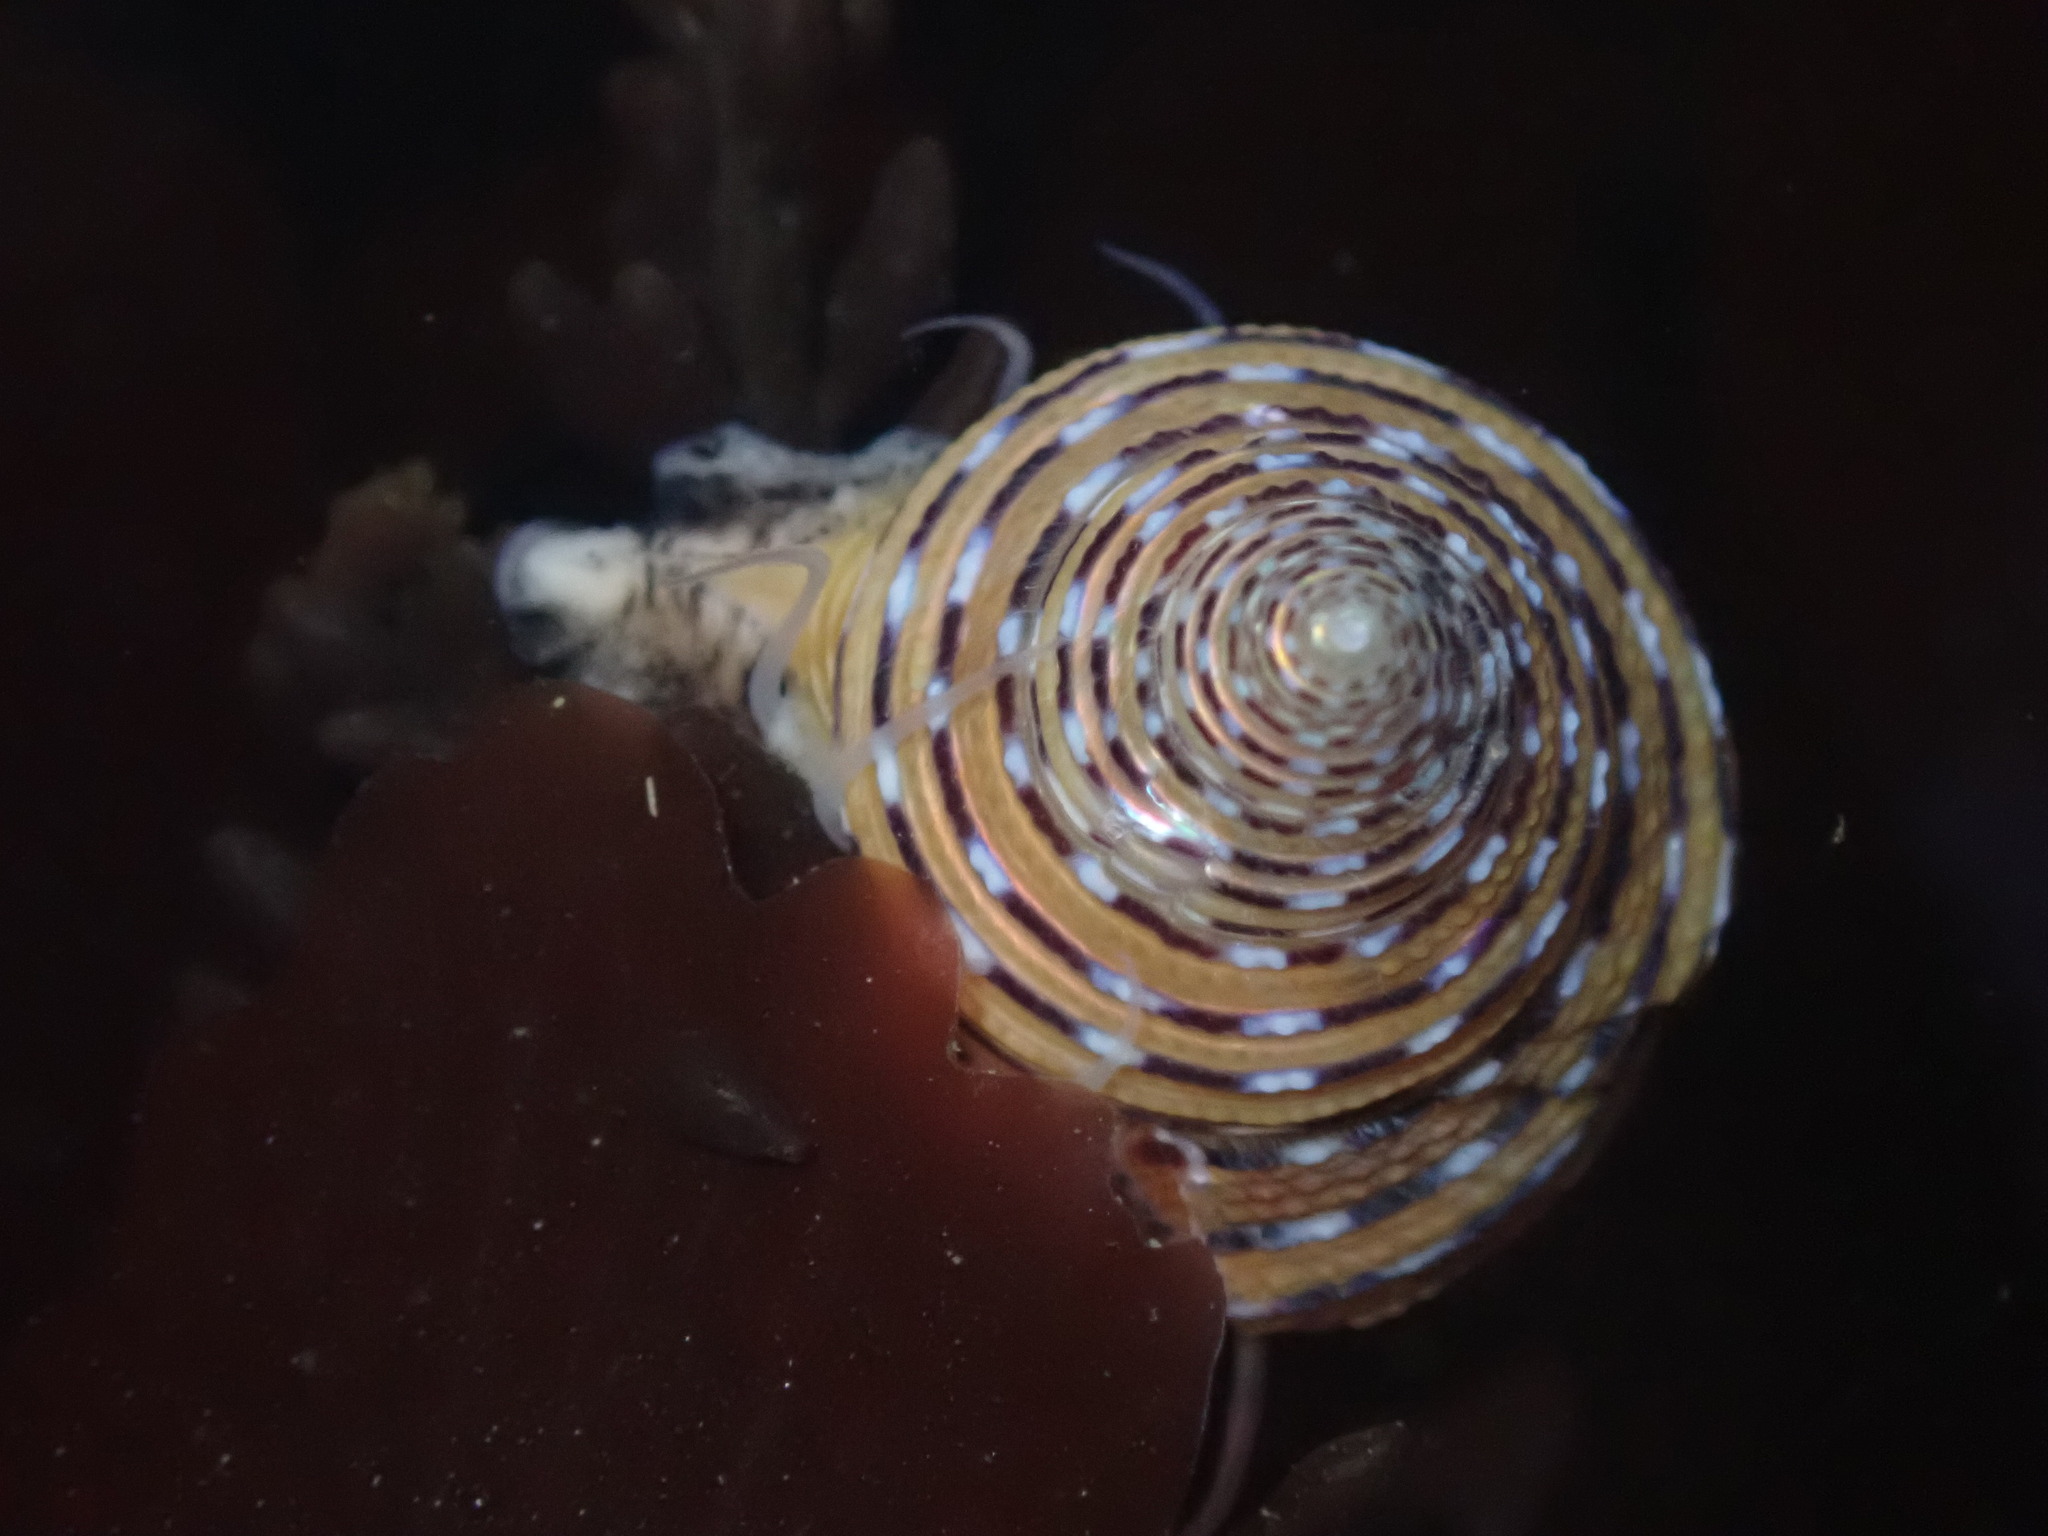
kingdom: Animalia
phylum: Mollusca
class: Gastropoda
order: Trochida
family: Calliostomatidae
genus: Calliostoma
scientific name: Calliostoma tricolor
